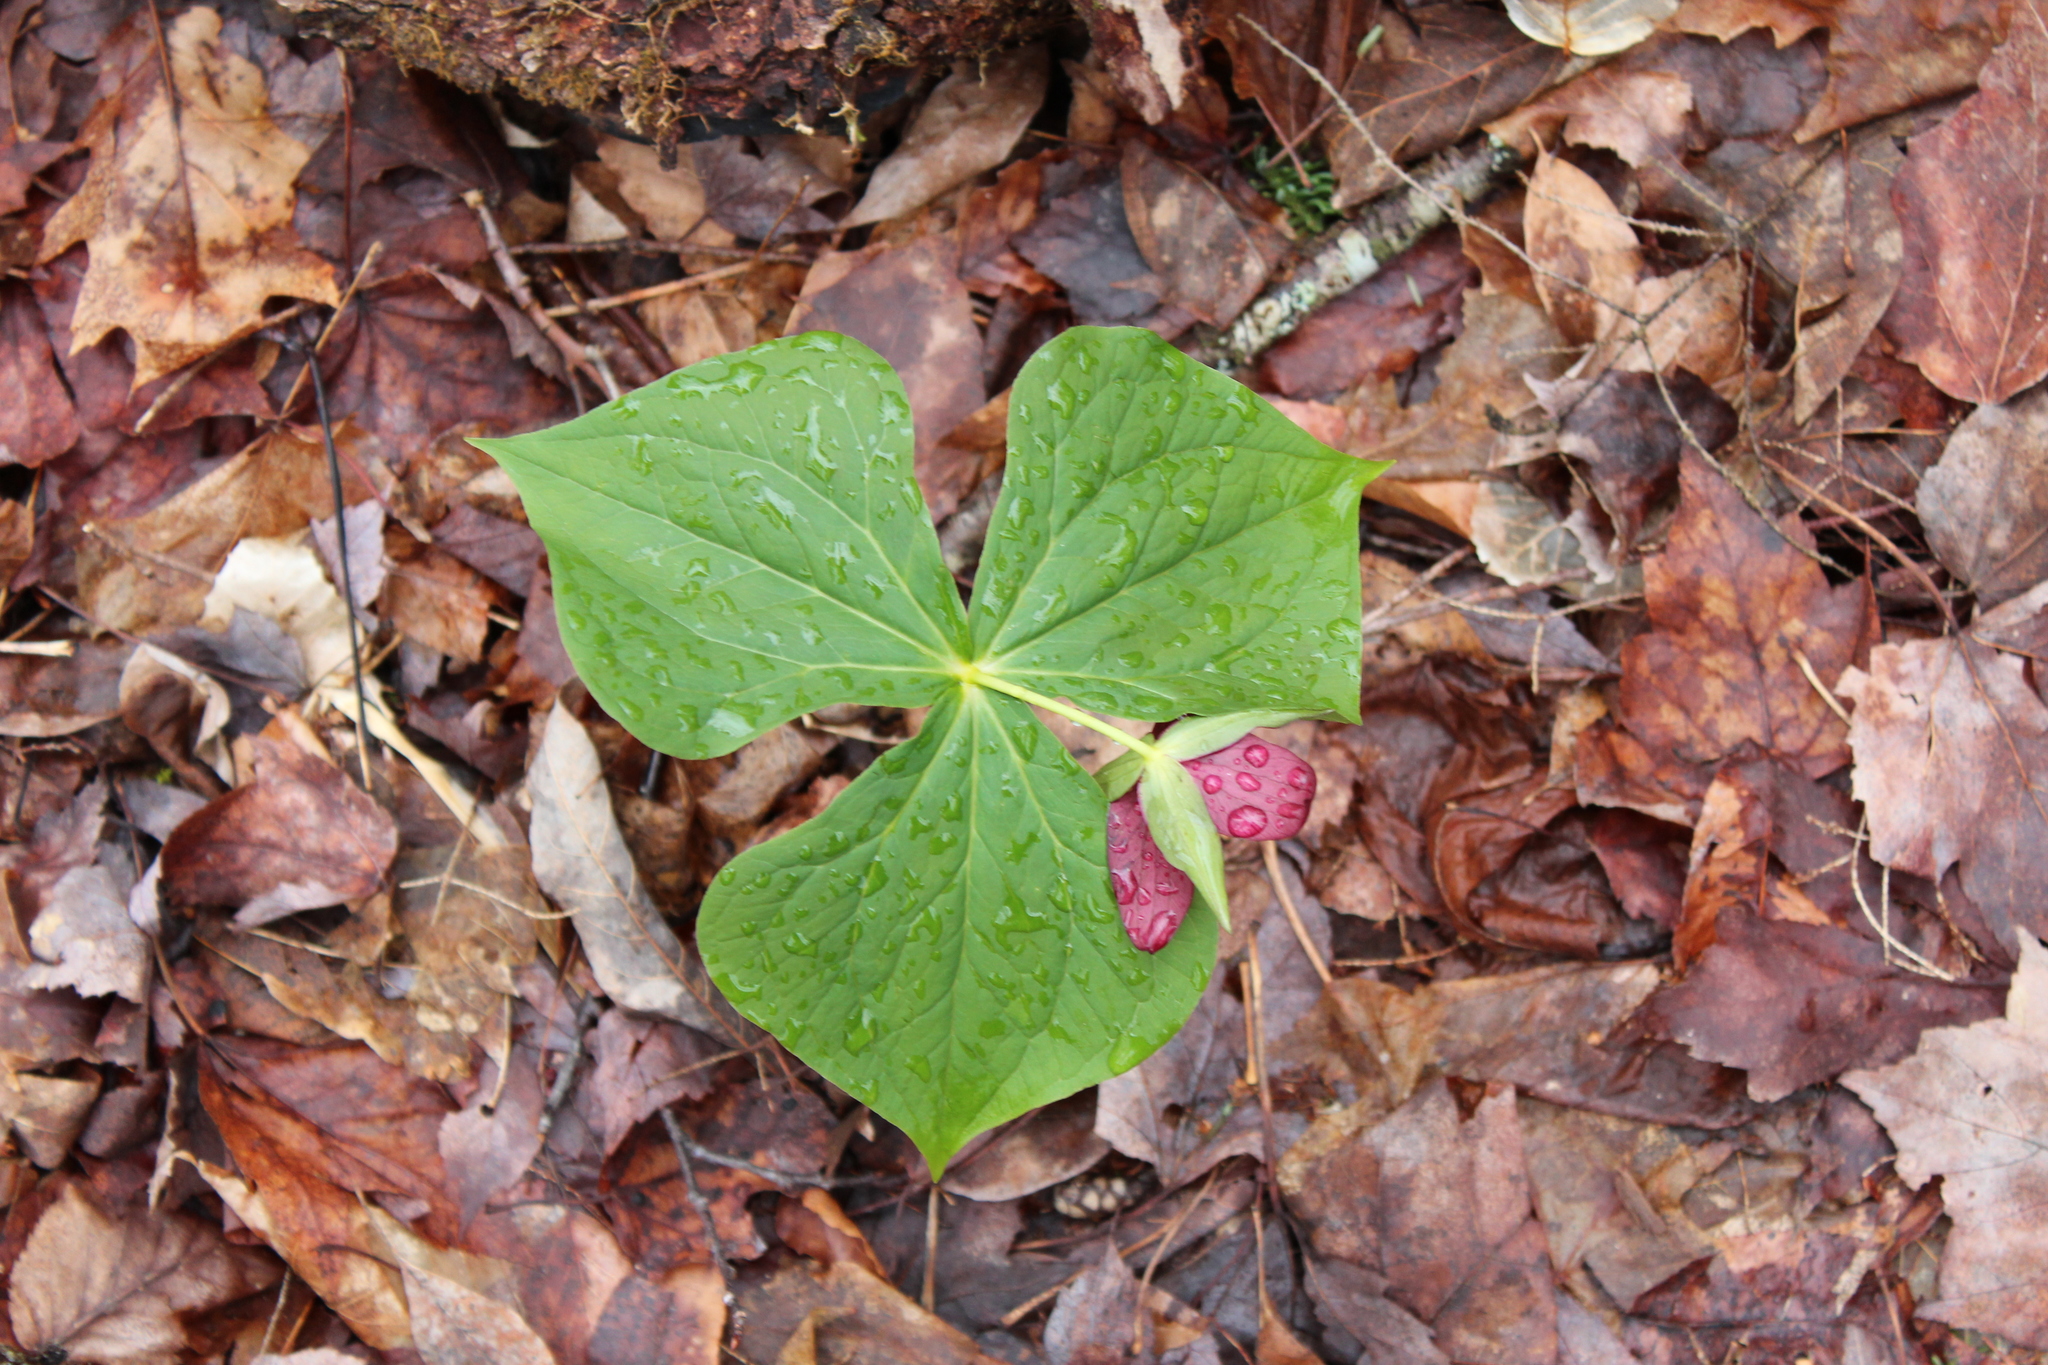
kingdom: Plantae
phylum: Tracheophyta
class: Liliopsida
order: Liliales
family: Melanthiaceae
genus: Trillium
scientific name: Trillium erectum
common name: Purple trillium
